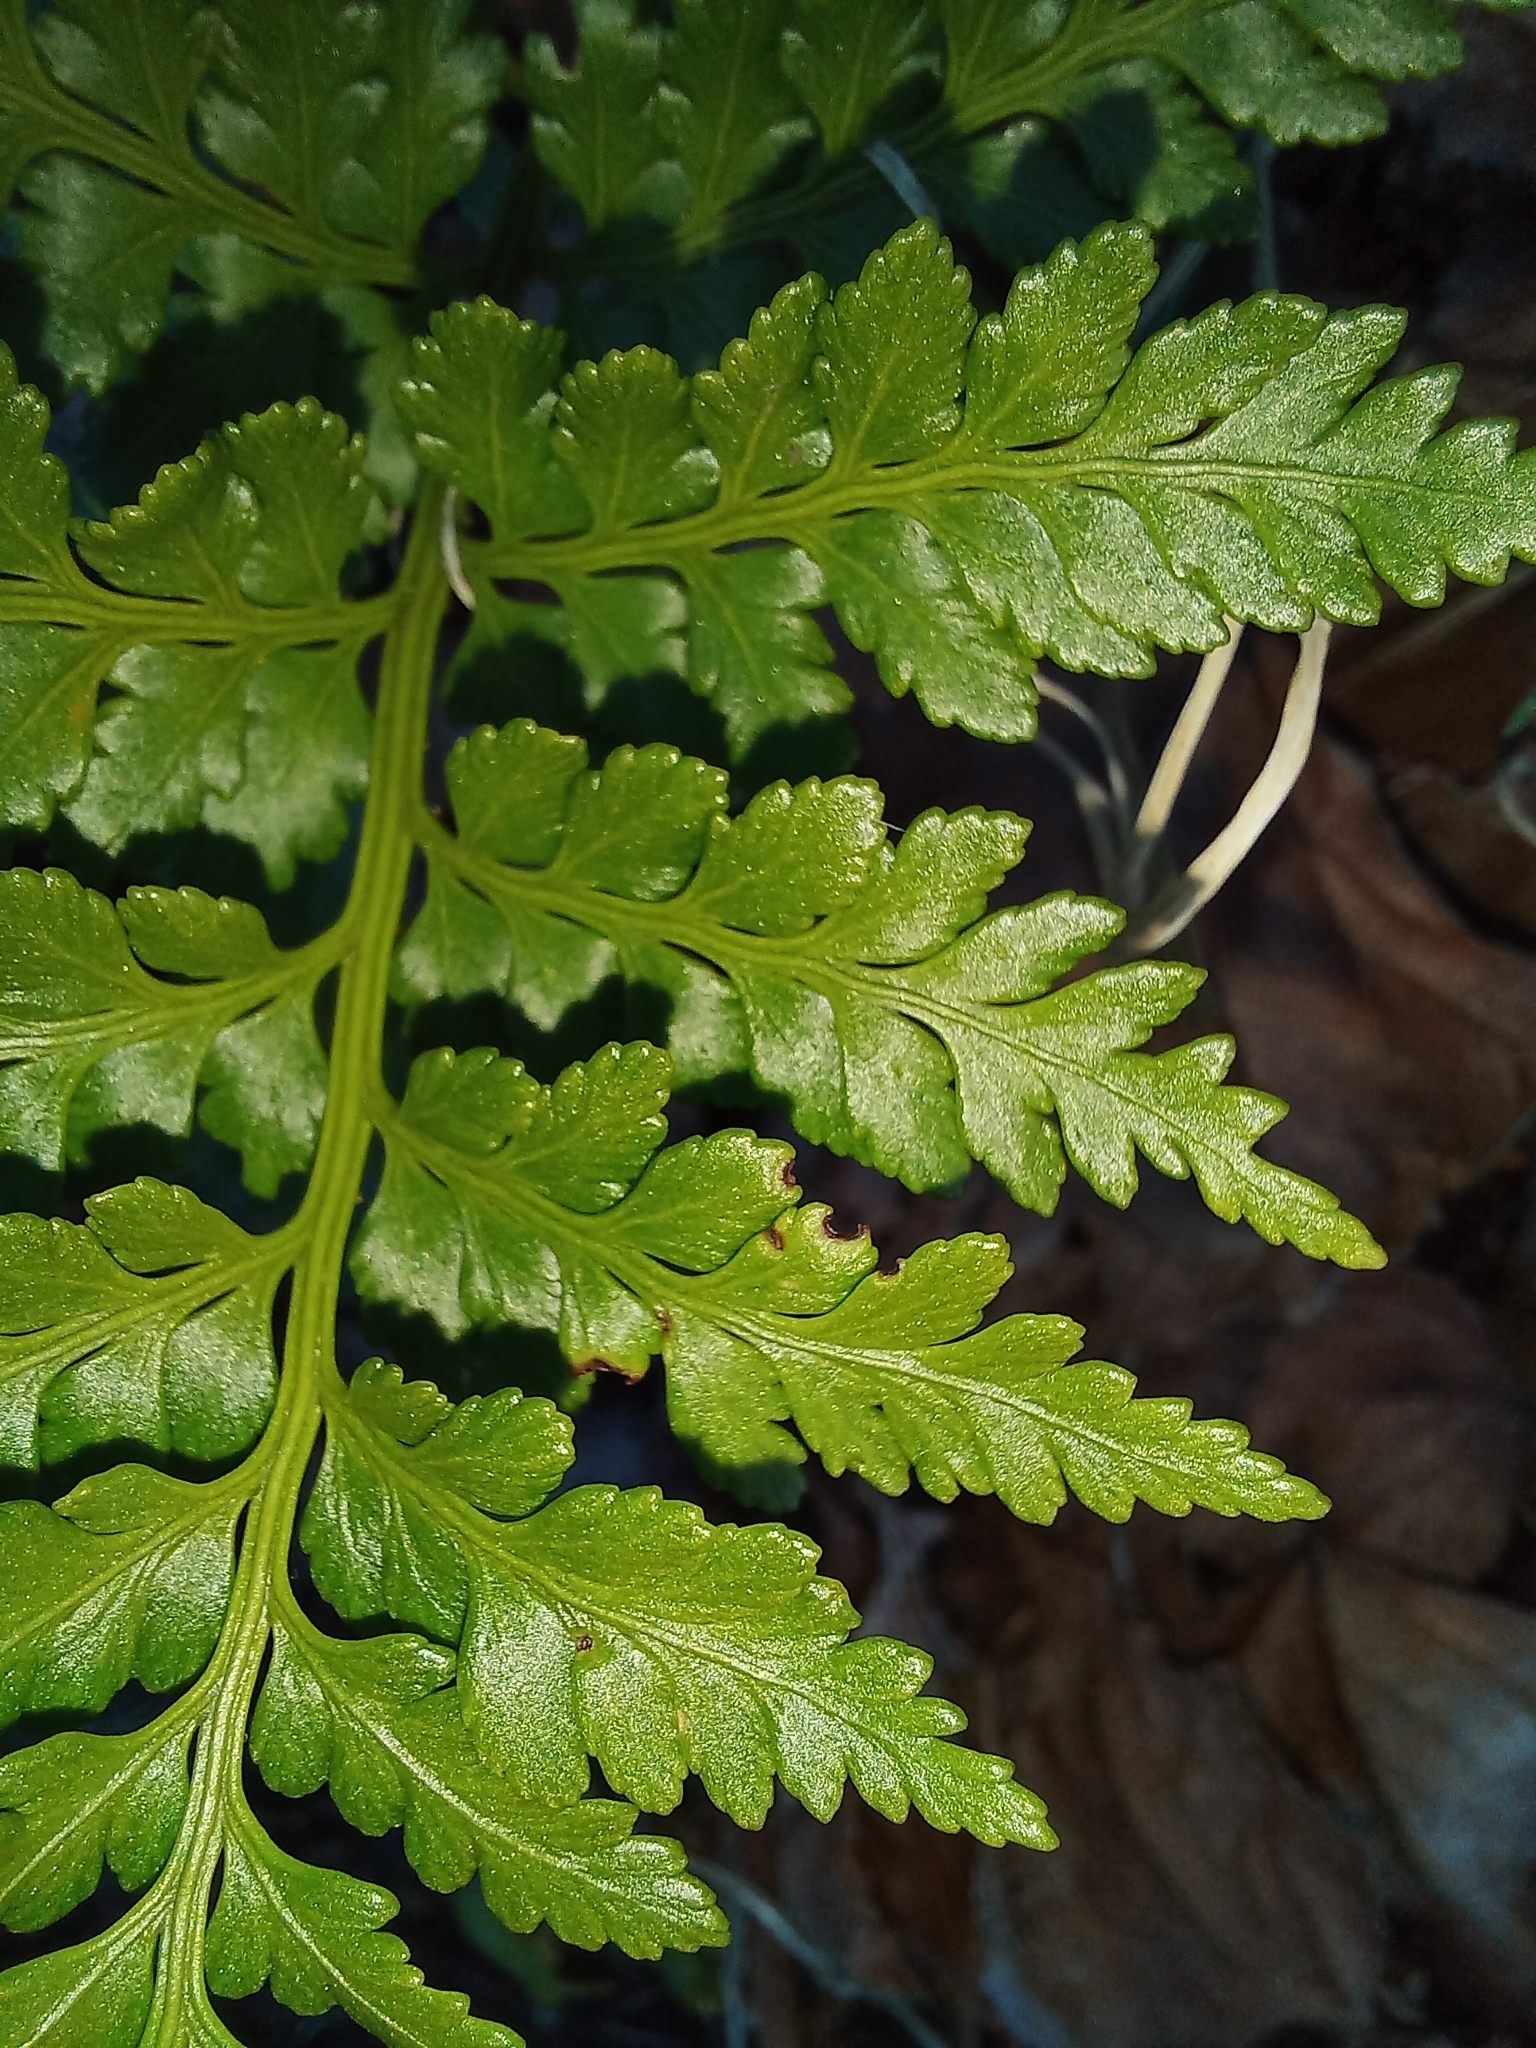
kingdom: Plantae
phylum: Tracheophyta
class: Polypodiopsida
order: Polypodiales
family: Dryopteridaceae
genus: Rumohra
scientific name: Rumohra adiantiformis
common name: Leather fern
